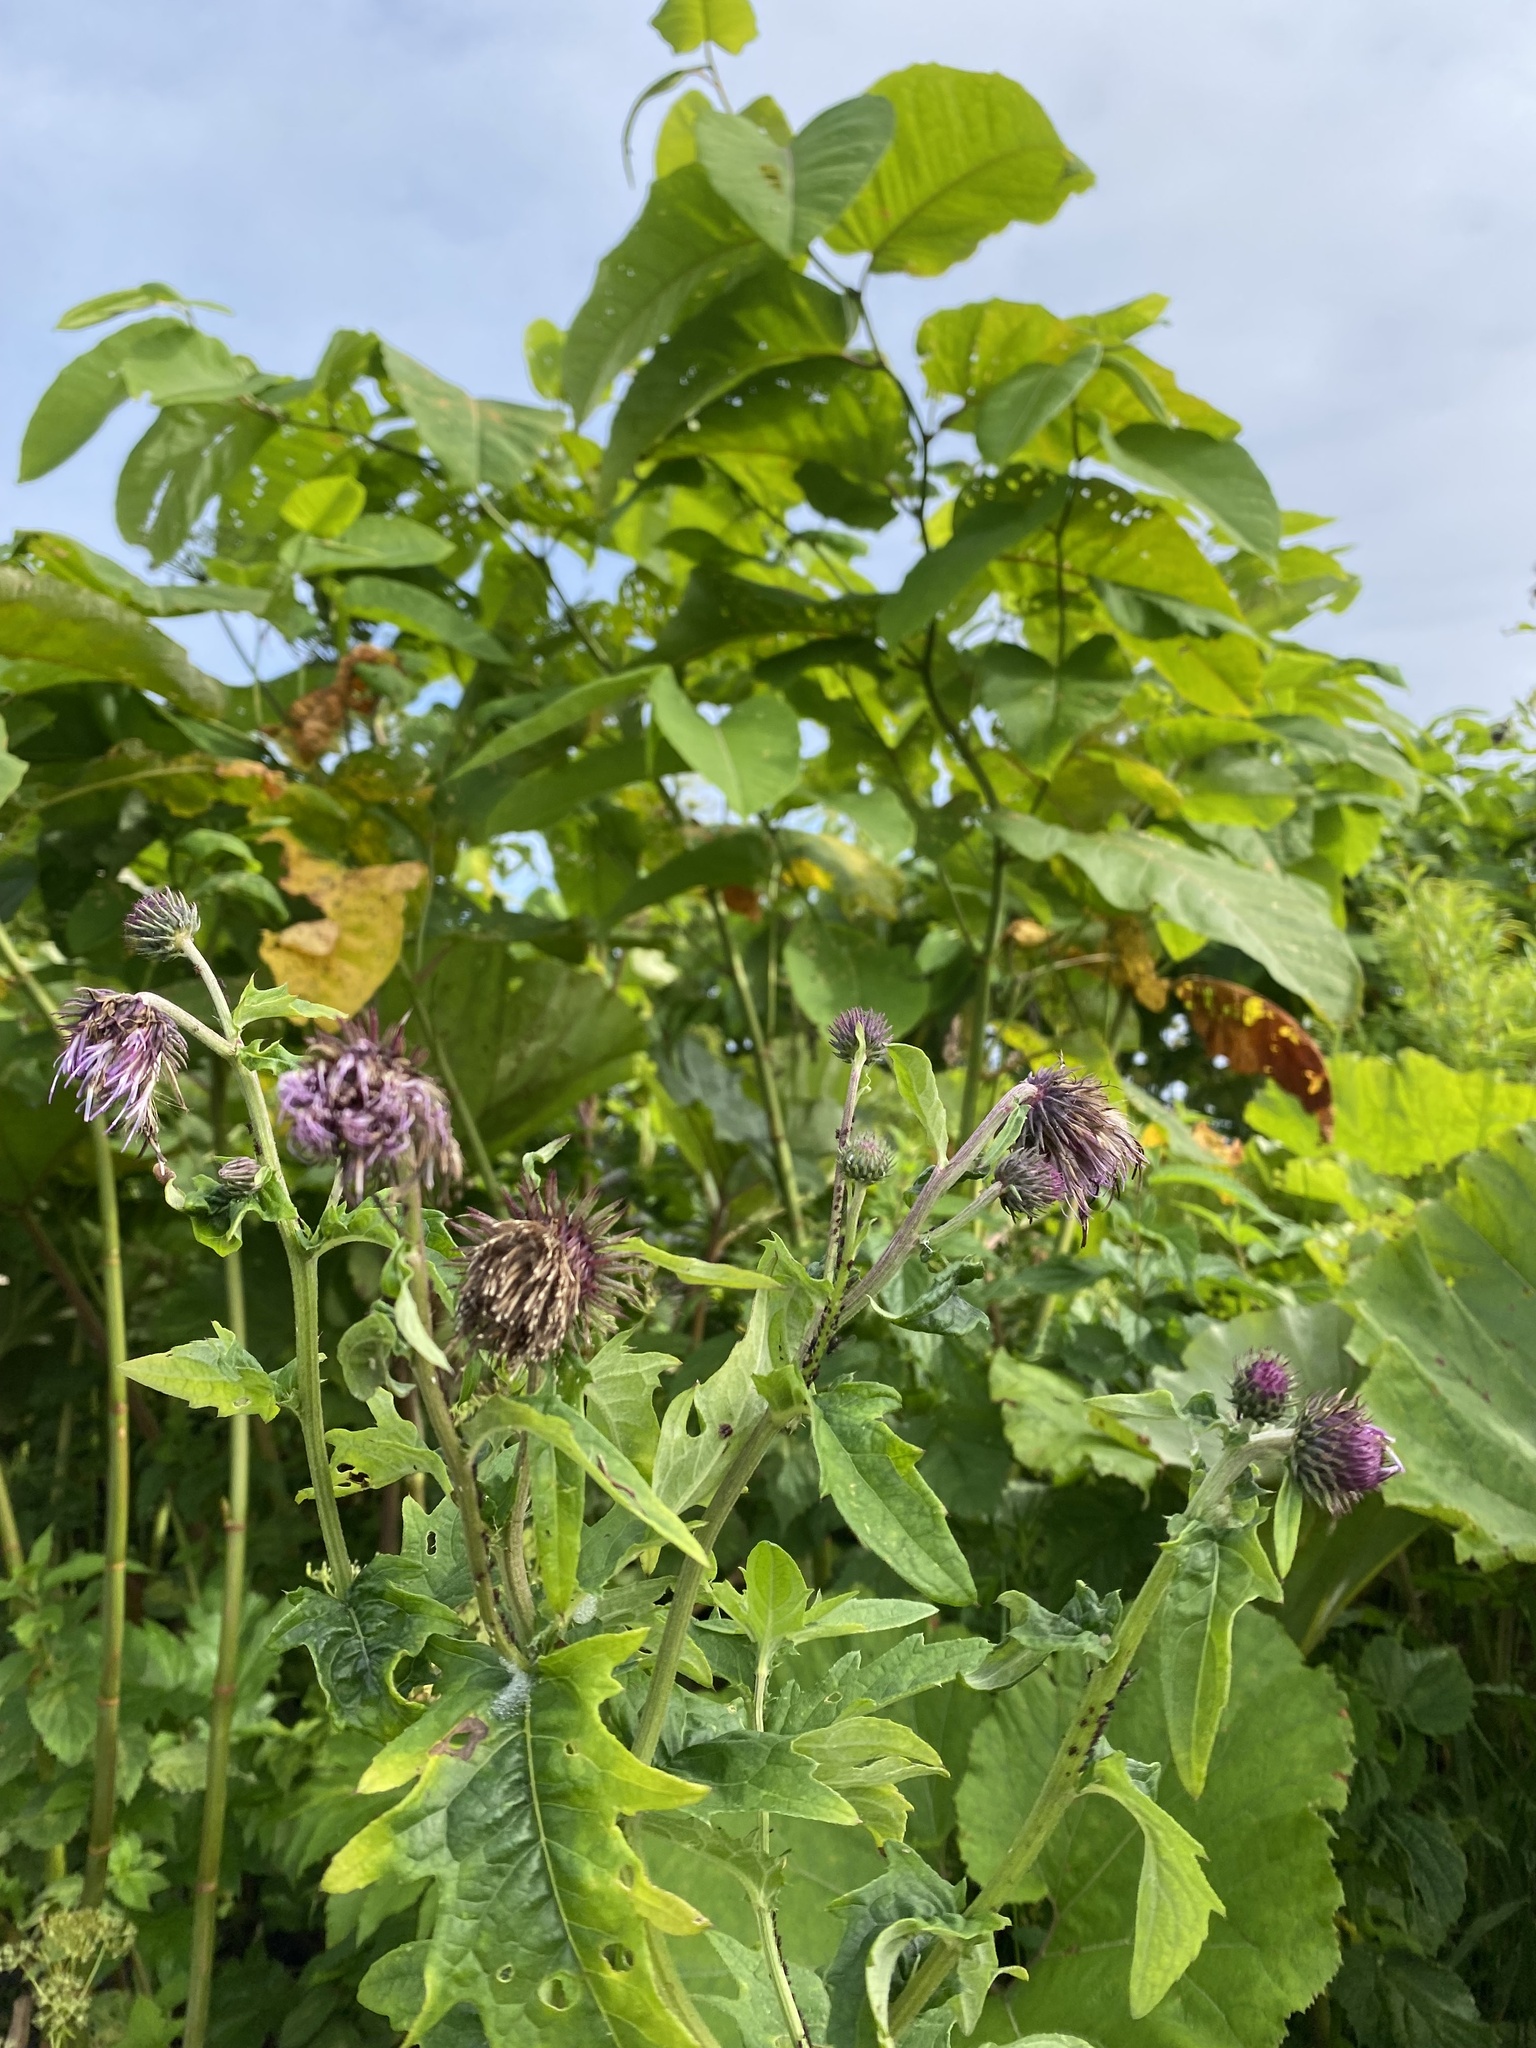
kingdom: Plantae
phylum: Tracheophyta
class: Magnoliopsida
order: Asterales
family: Asteraceae
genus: Cirsium
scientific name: Cirsium kamtschaticum
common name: Kamchatka thistle
